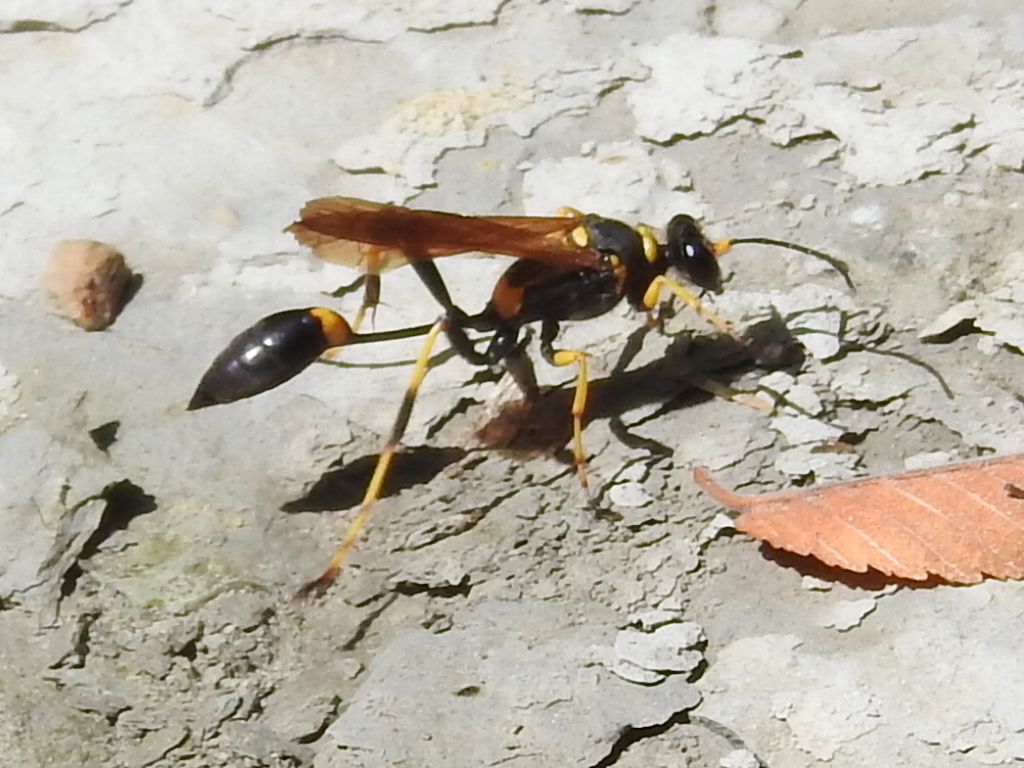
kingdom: Animalia
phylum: Arthropoda
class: Insecta
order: Hymenoptera
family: Sphecidae
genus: Sceliphron
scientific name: Sceliphron caementarium
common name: Mud dauber
